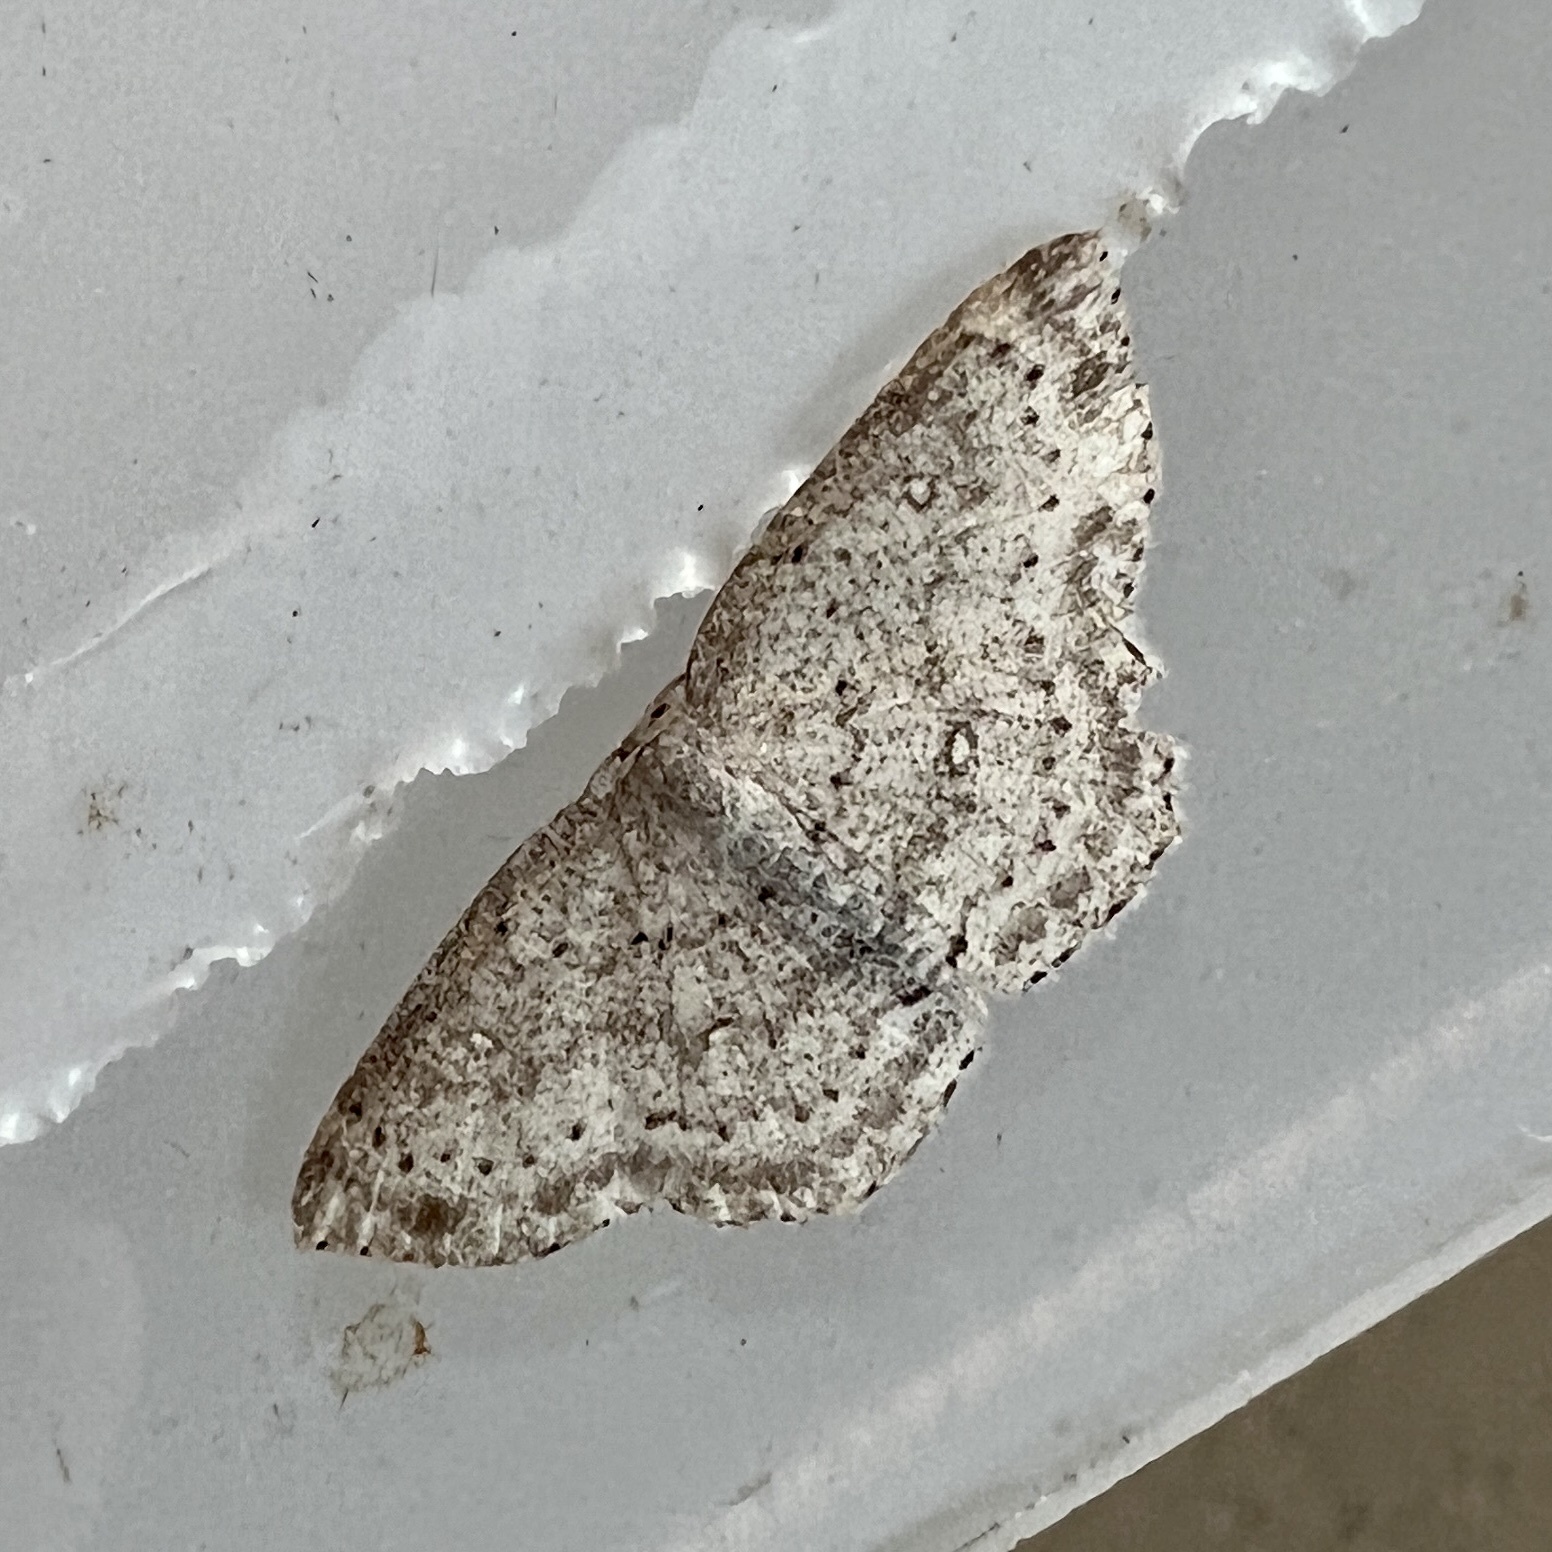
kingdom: Animalia
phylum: Arthropoda
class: Insecta
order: Lepidoptera
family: Geometridae
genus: Cyclophora
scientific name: Cyclophora pendulinaria
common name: Sweet fern geometer
